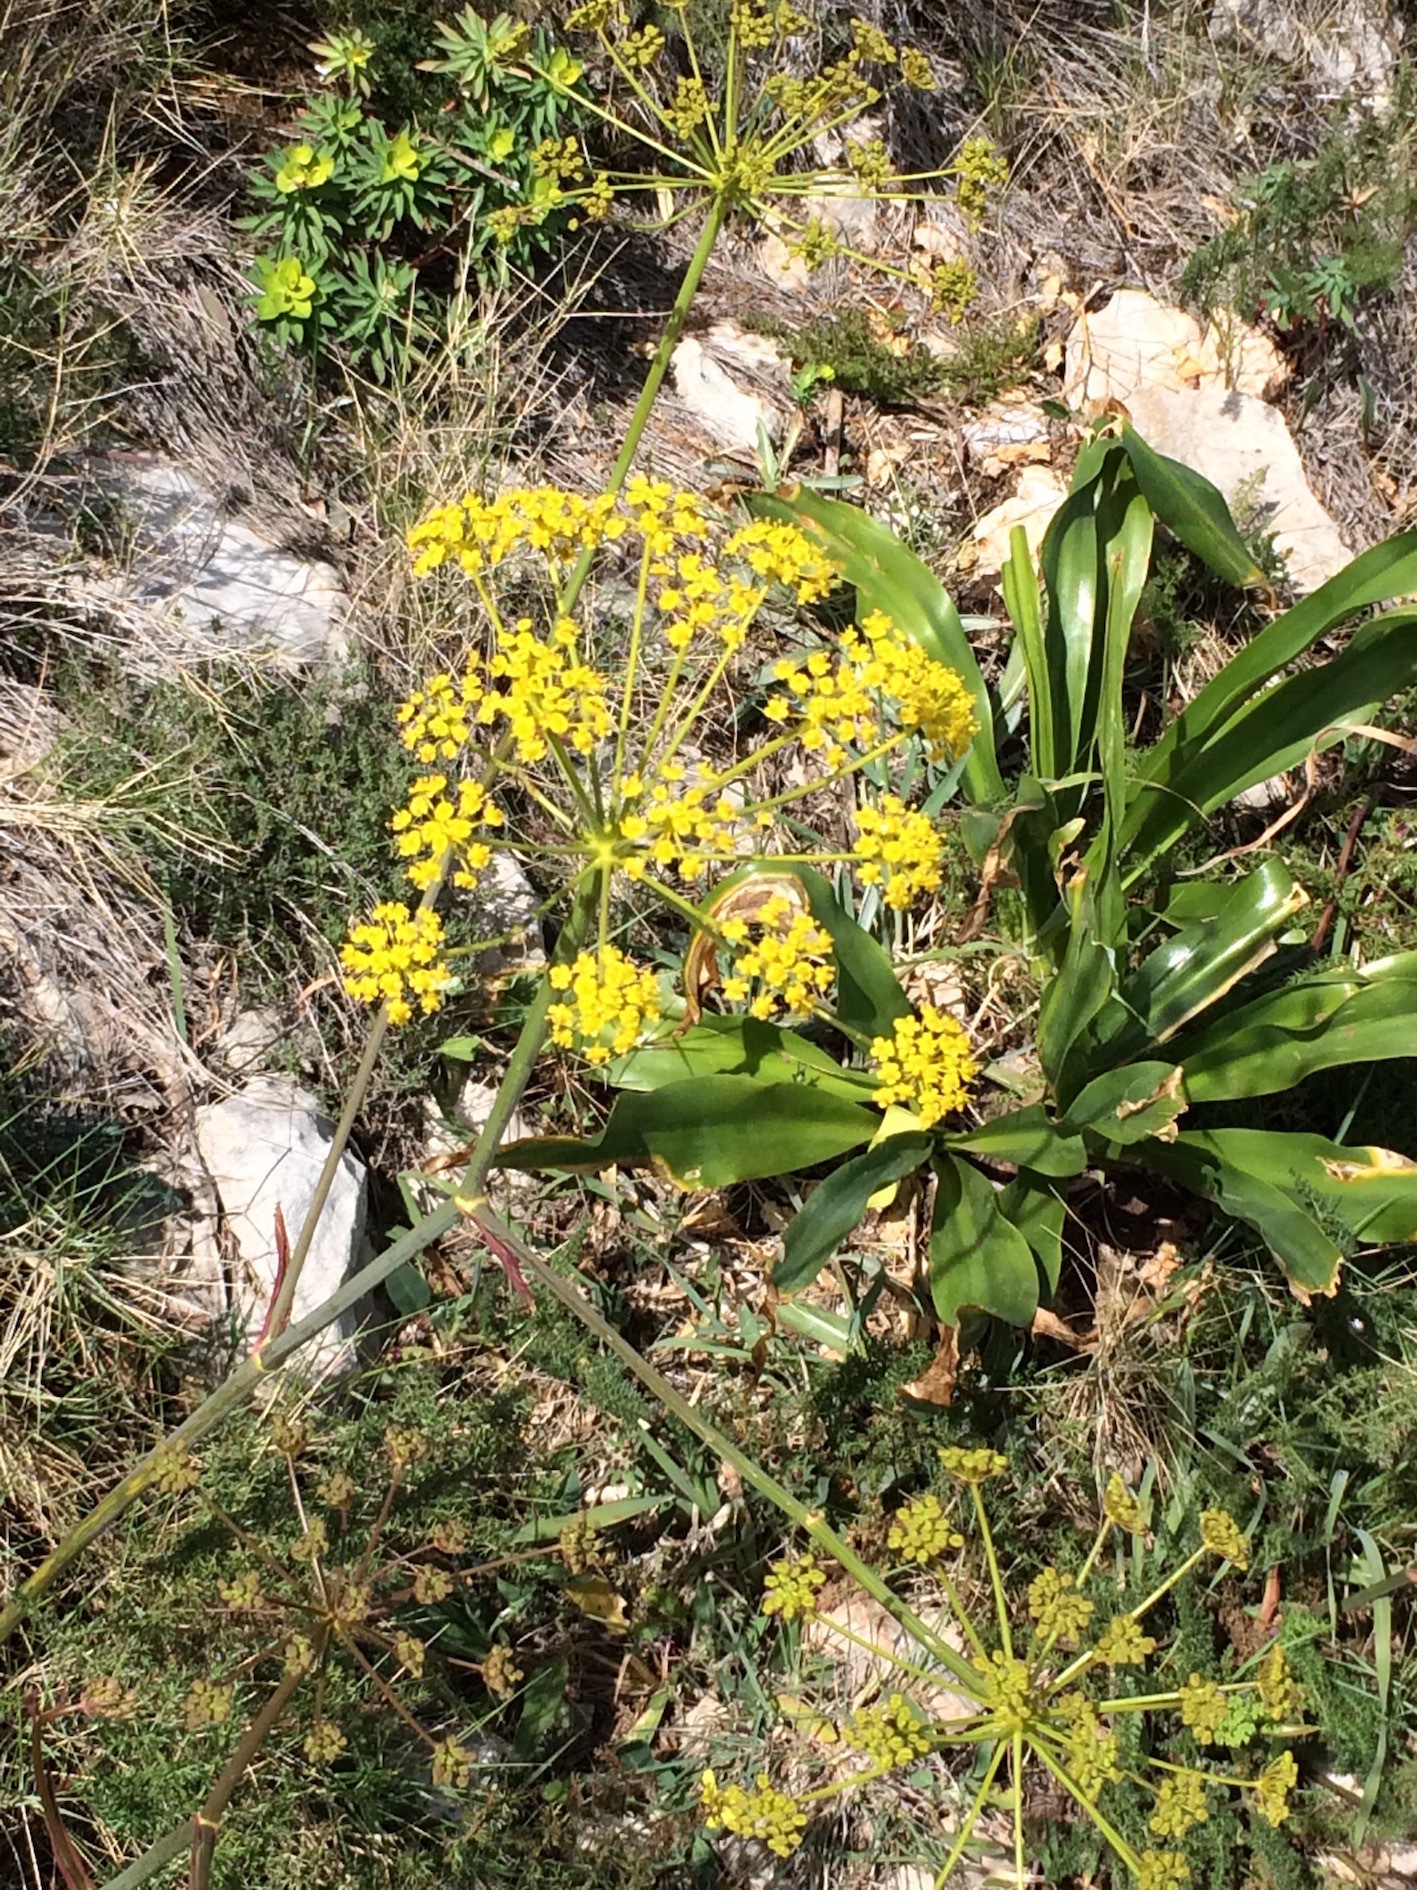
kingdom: Plantae
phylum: Tracheophyta
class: Magnoliopsida
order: Apiales
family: Apiaceae
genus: Thapsia
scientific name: Thapsia villosa
